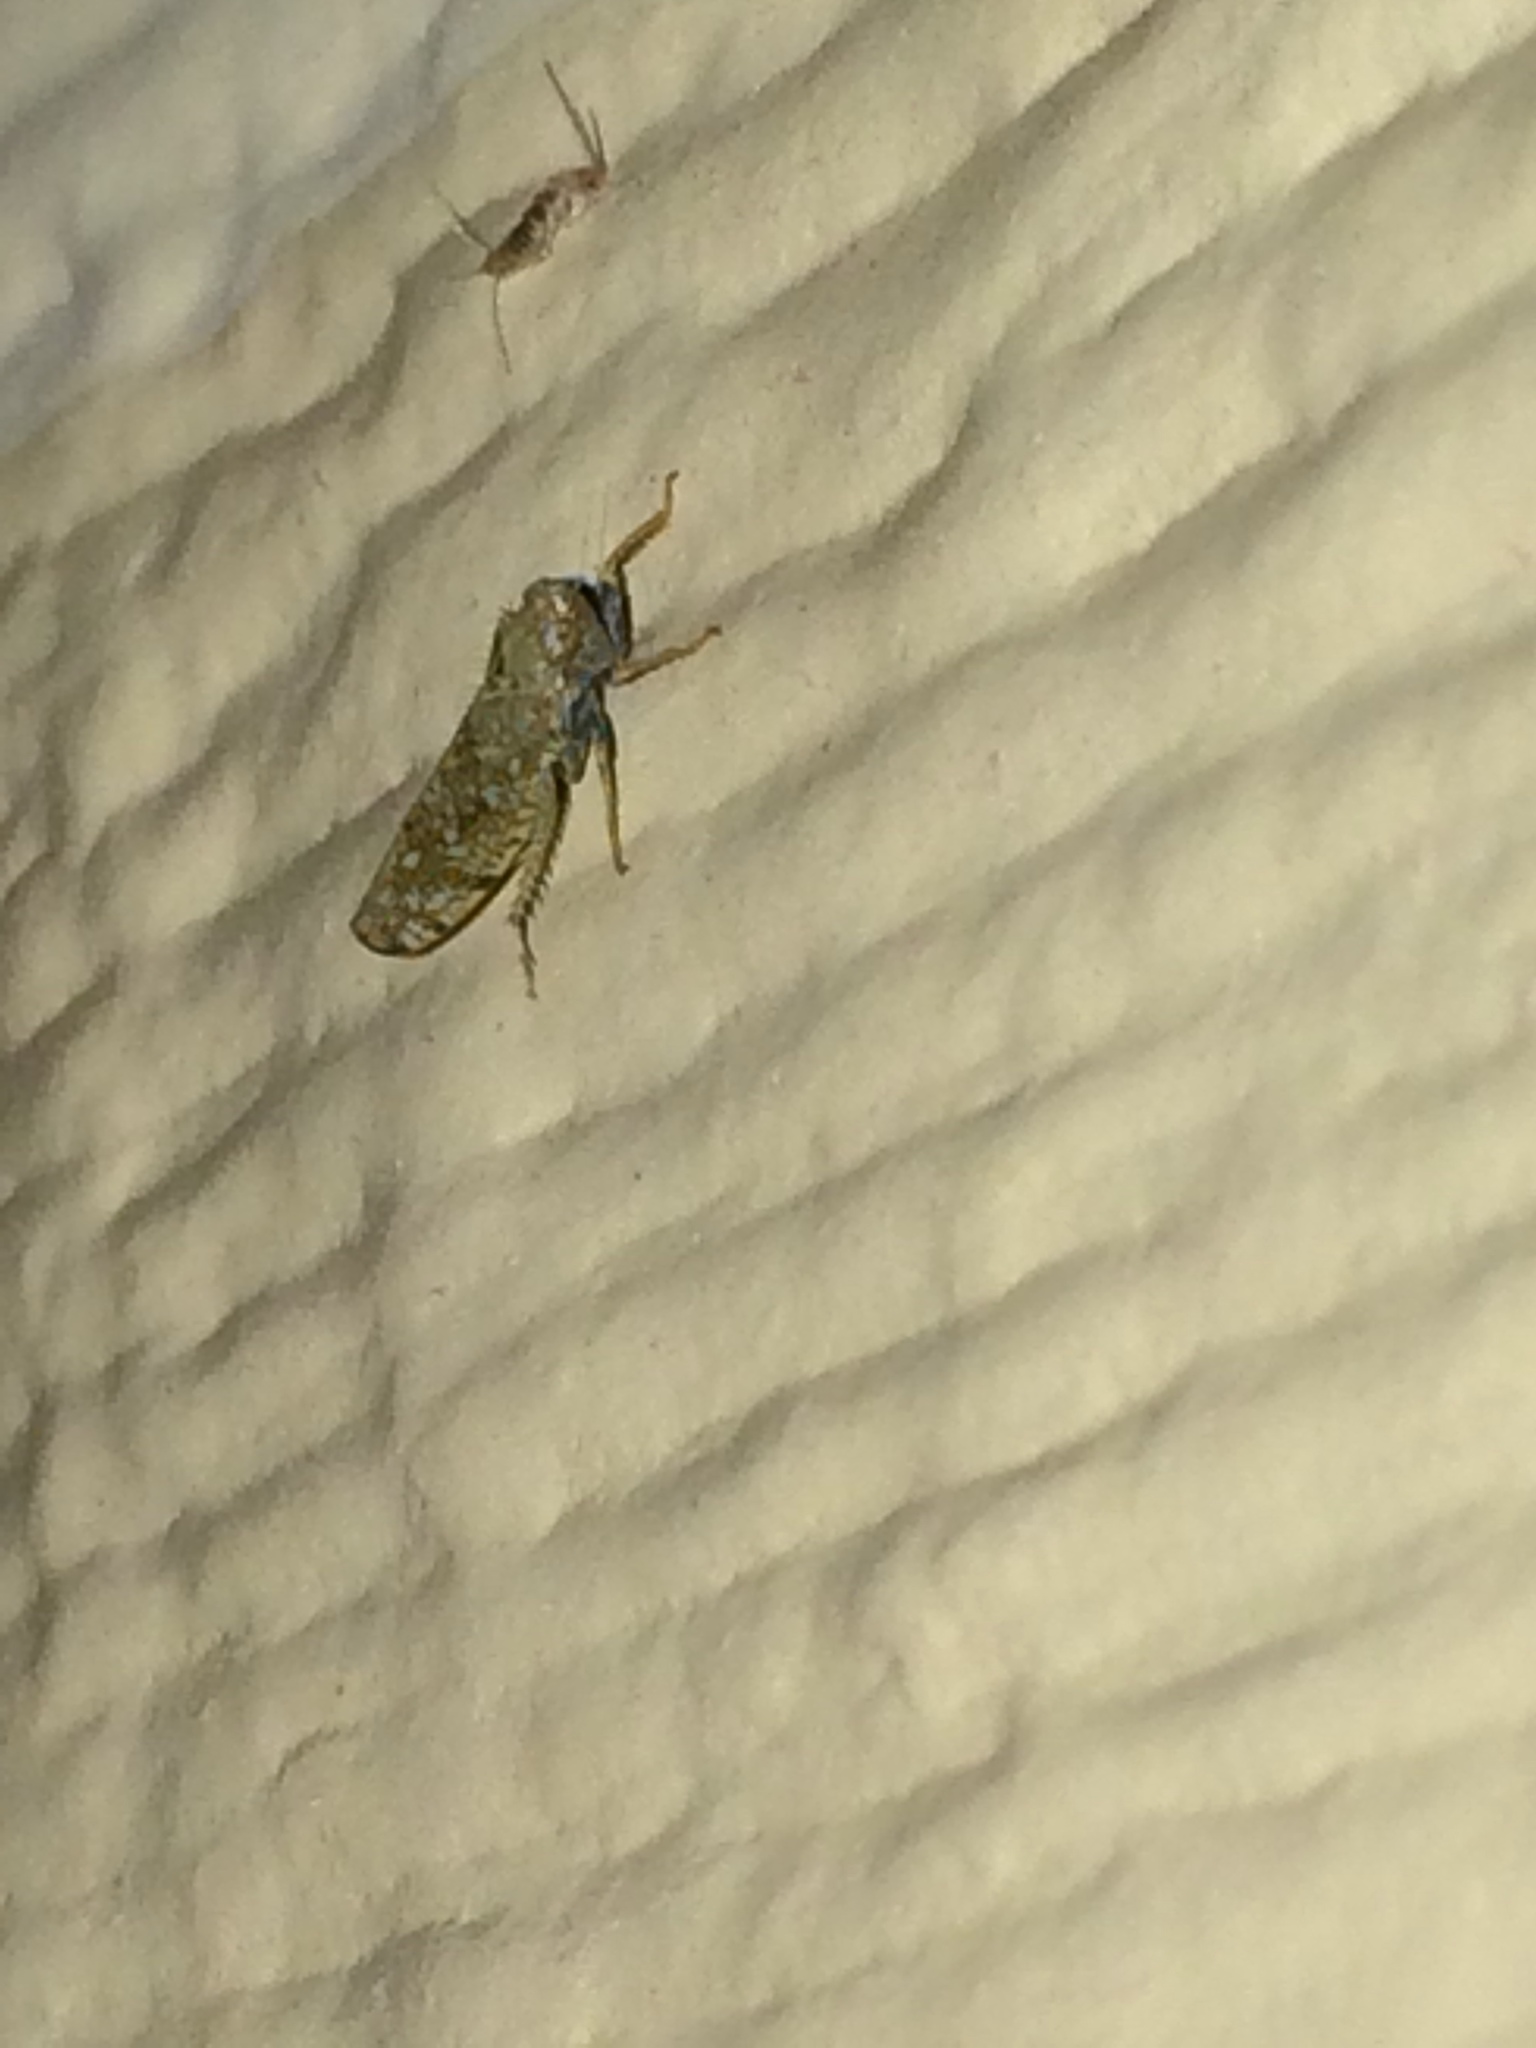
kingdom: Animalia
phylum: Arthropoda
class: Insecta
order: Hemiptera
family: Cicadellidae
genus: Orientus
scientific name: Orientus ishidae
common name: Japanese leafhopper
